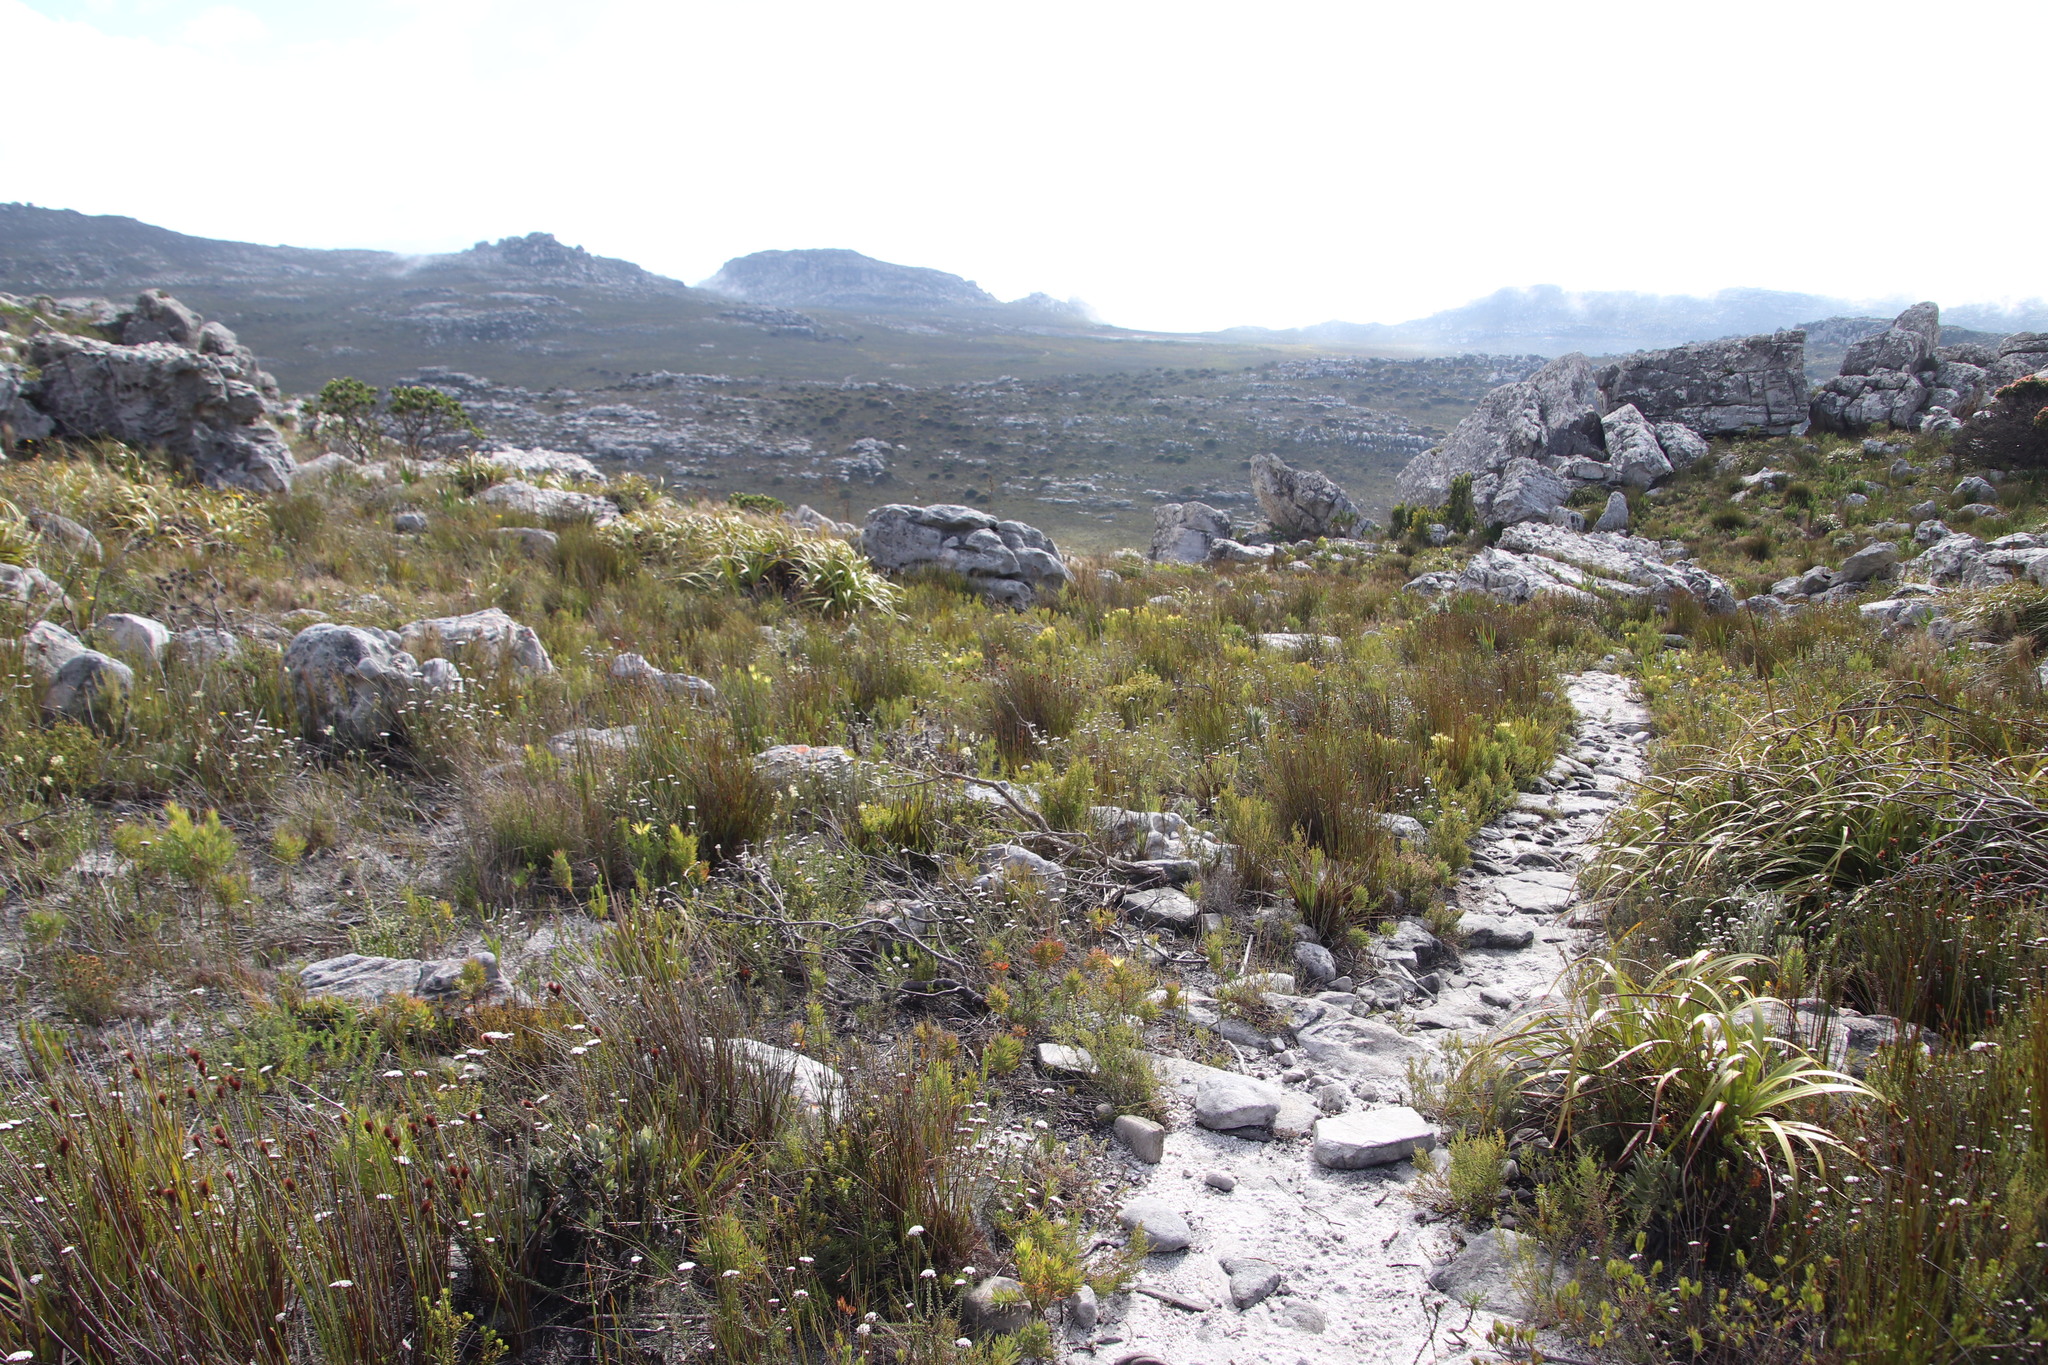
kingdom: Plantae
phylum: Tracheophyta
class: Magnoliopsida
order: Proteales
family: Proteaceae
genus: Leucadendron
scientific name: Leucadendron xanthoconus
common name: Sickle-leaf conebush
